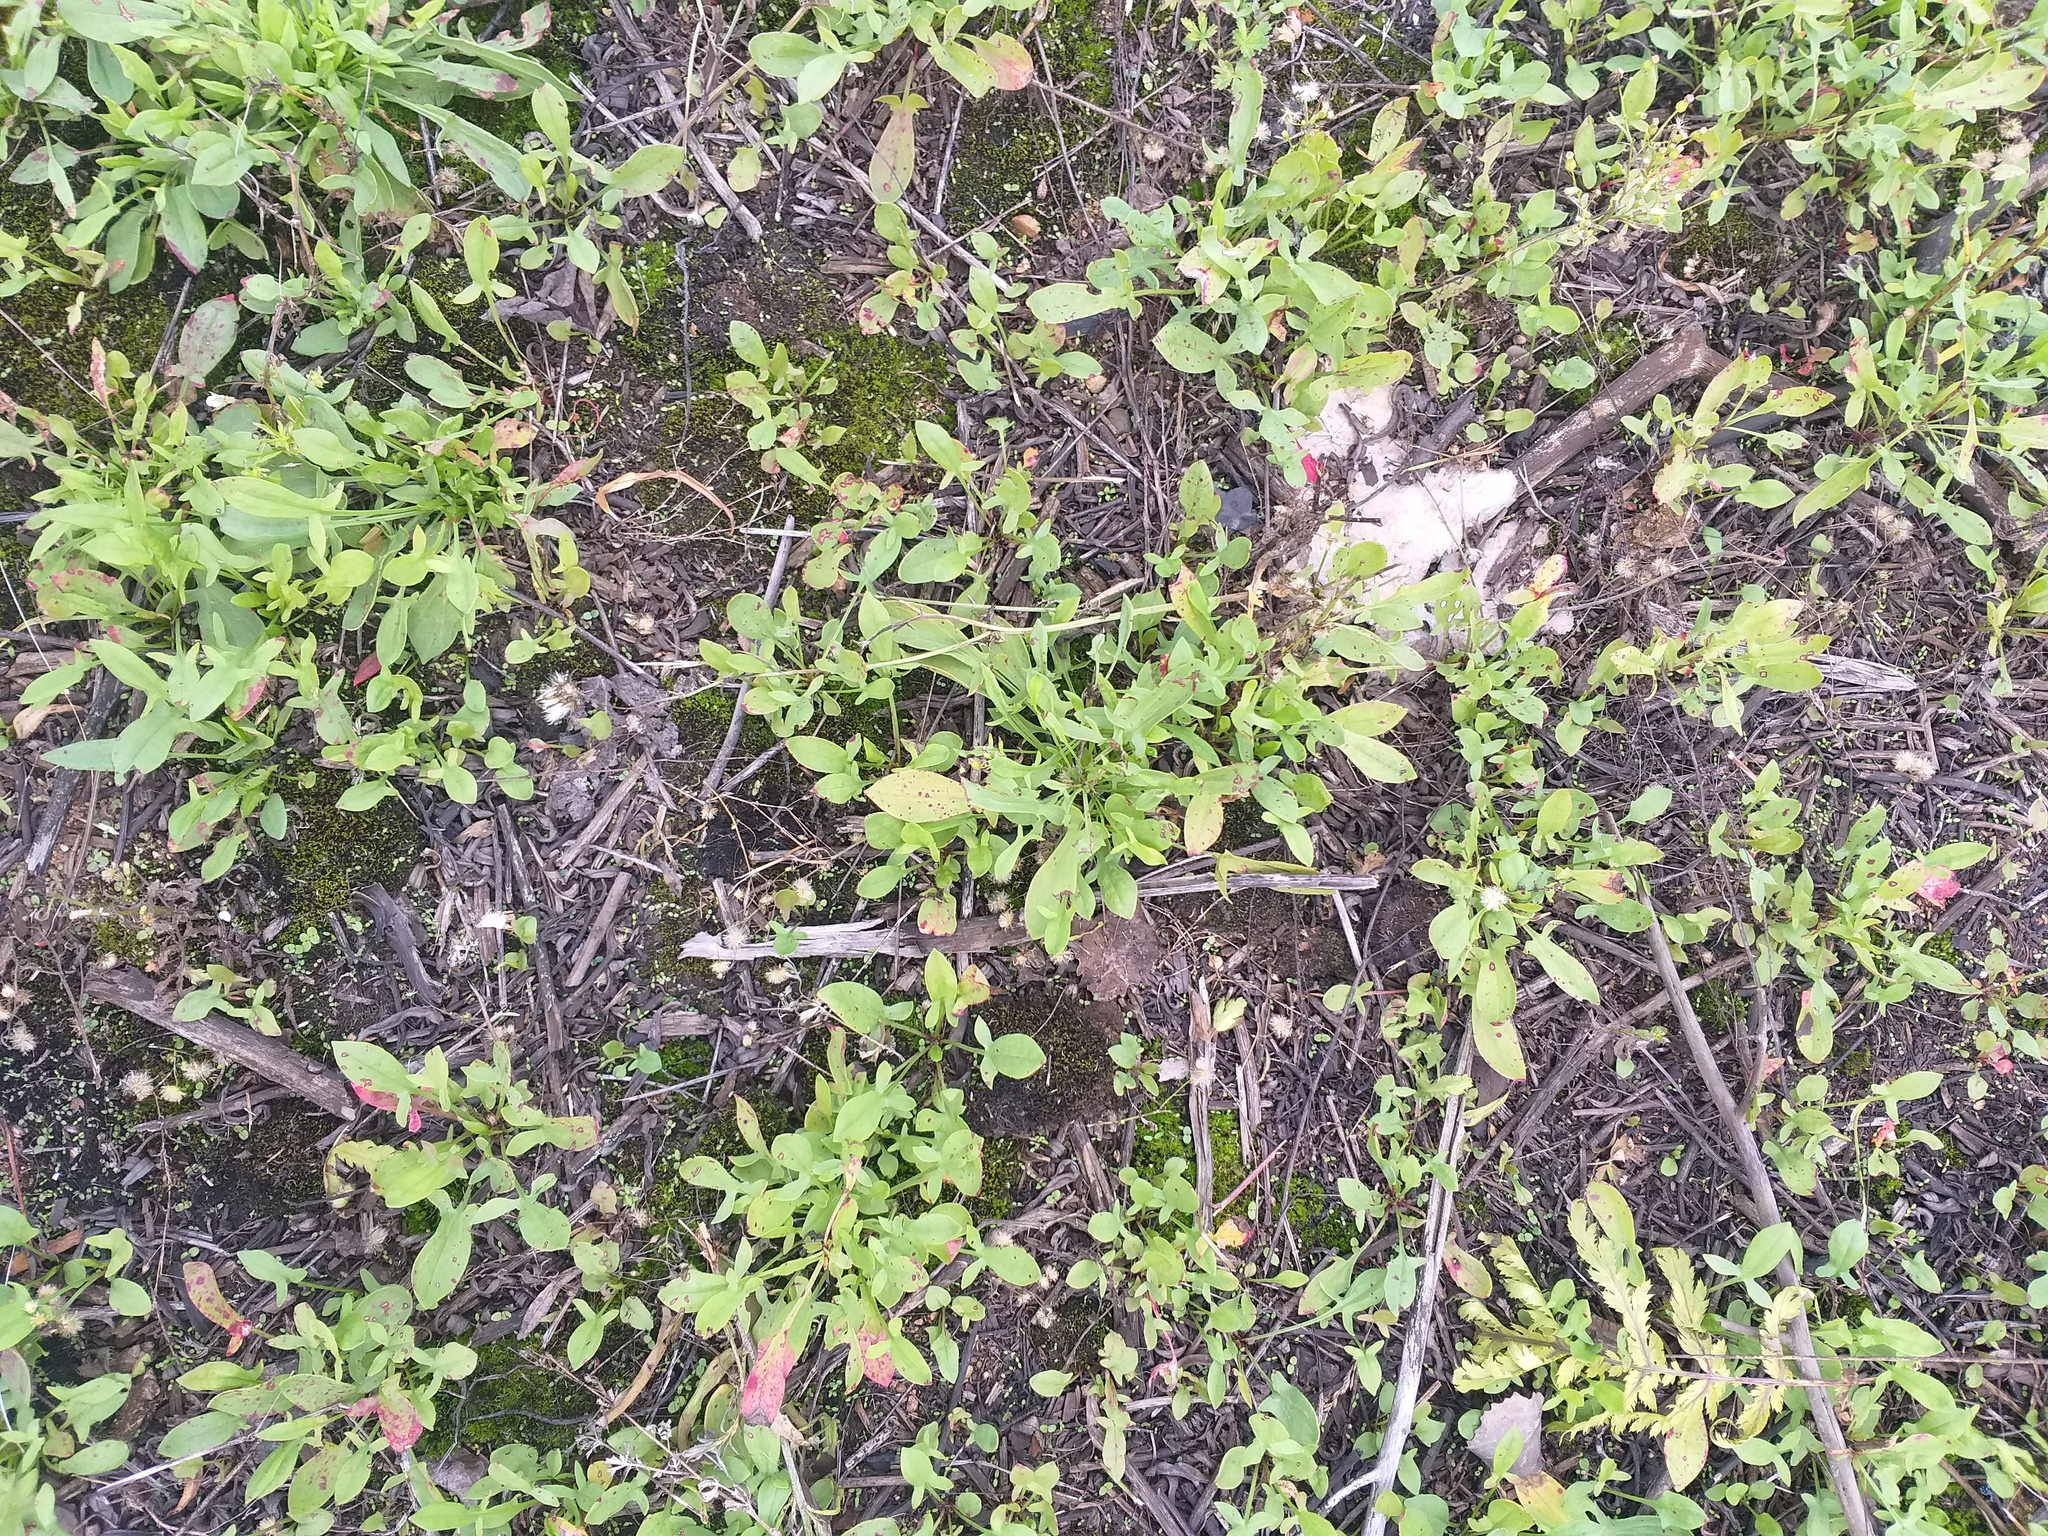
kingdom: Plantae
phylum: Tracheophyta
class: Magnoliopsida
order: Caryophyllales
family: Polygonaceae
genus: Rumex
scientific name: Rumex acetosella
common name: Common sheep sorrel
